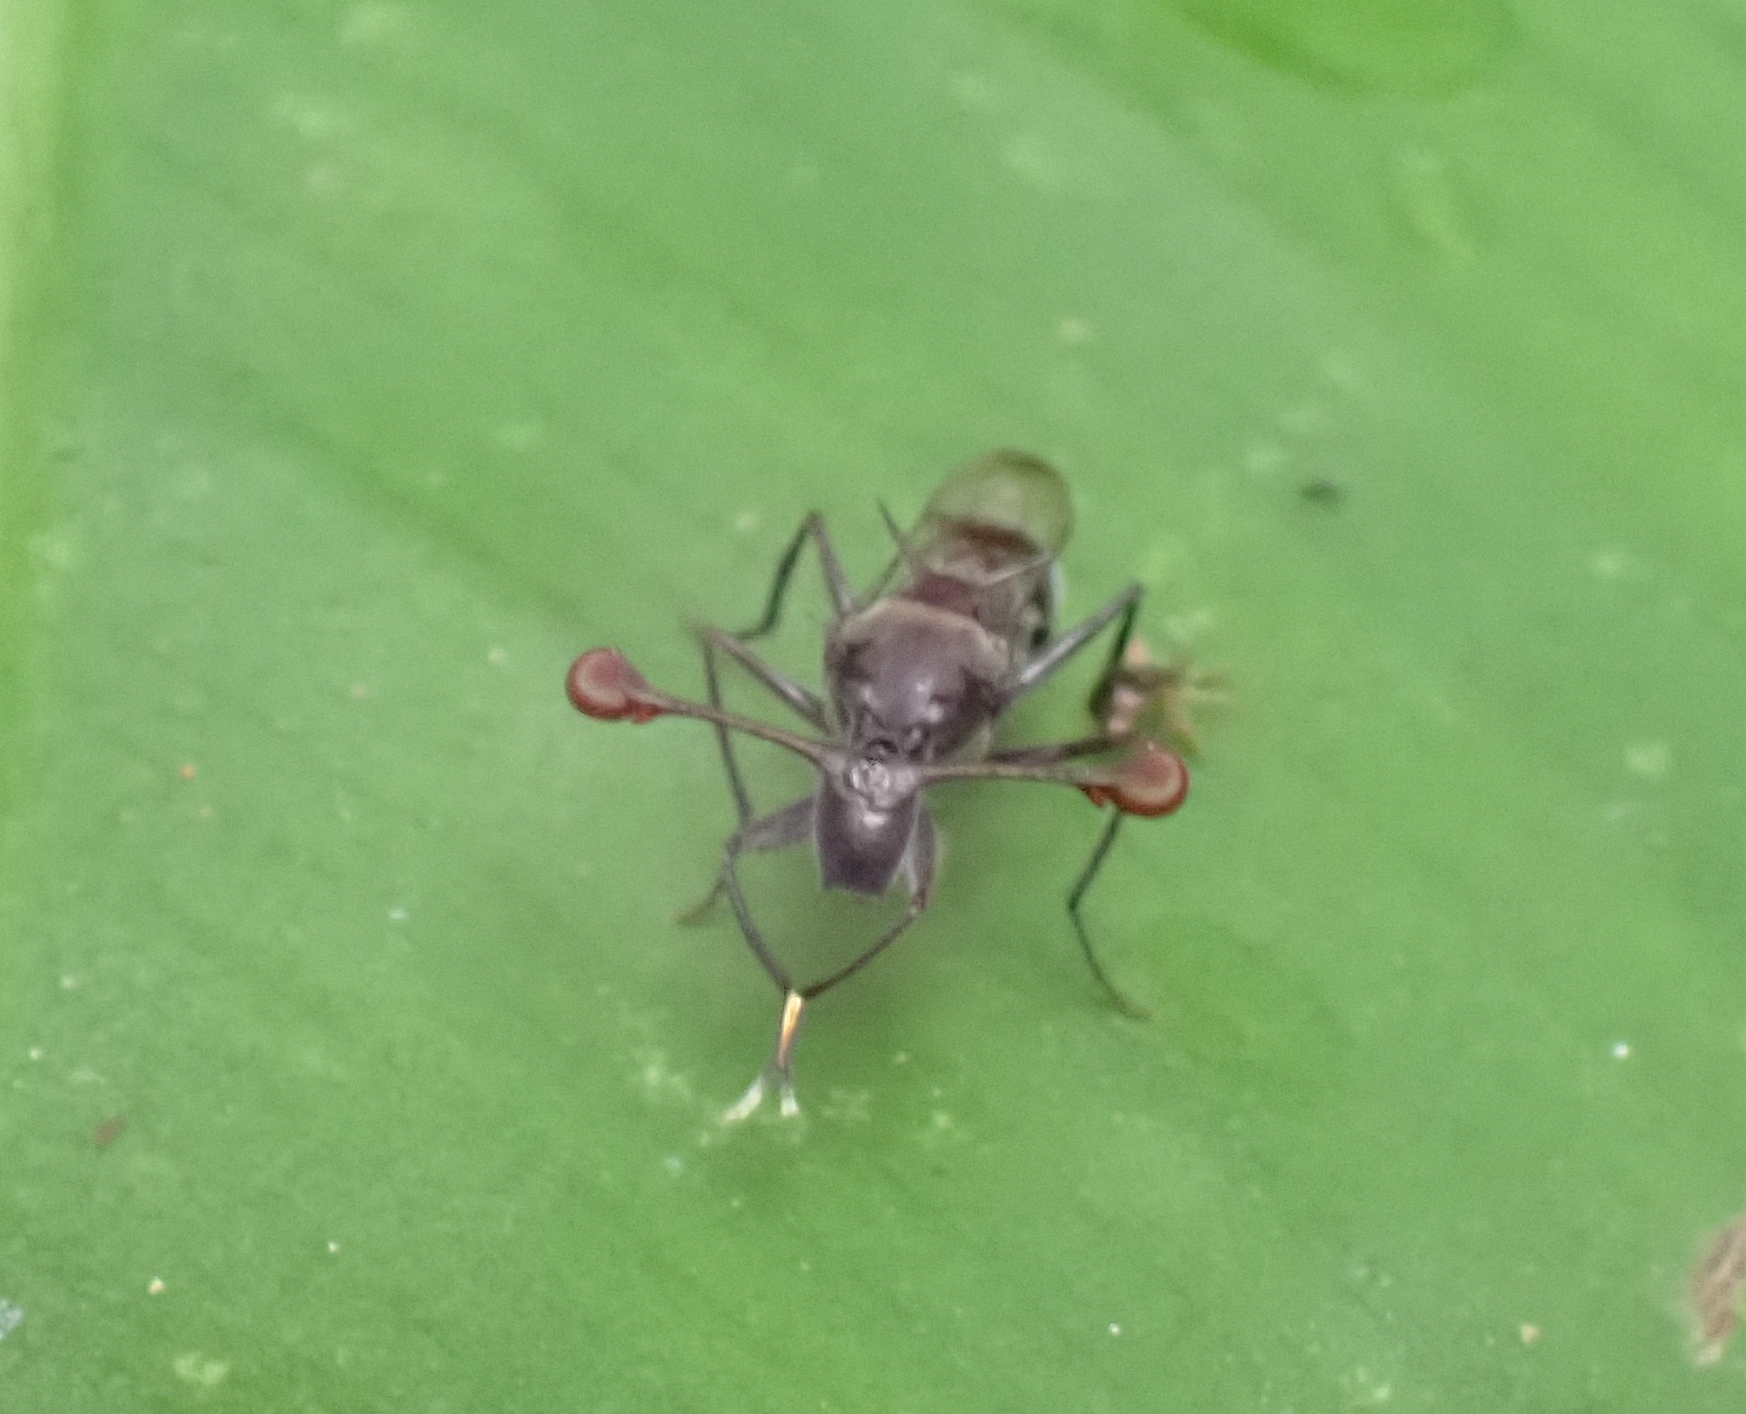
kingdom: Animalia
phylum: Arthropoda
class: Insecta
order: Diptera
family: Diopsidae
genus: Chaetodiopsis
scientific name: Chaetodiopsis
